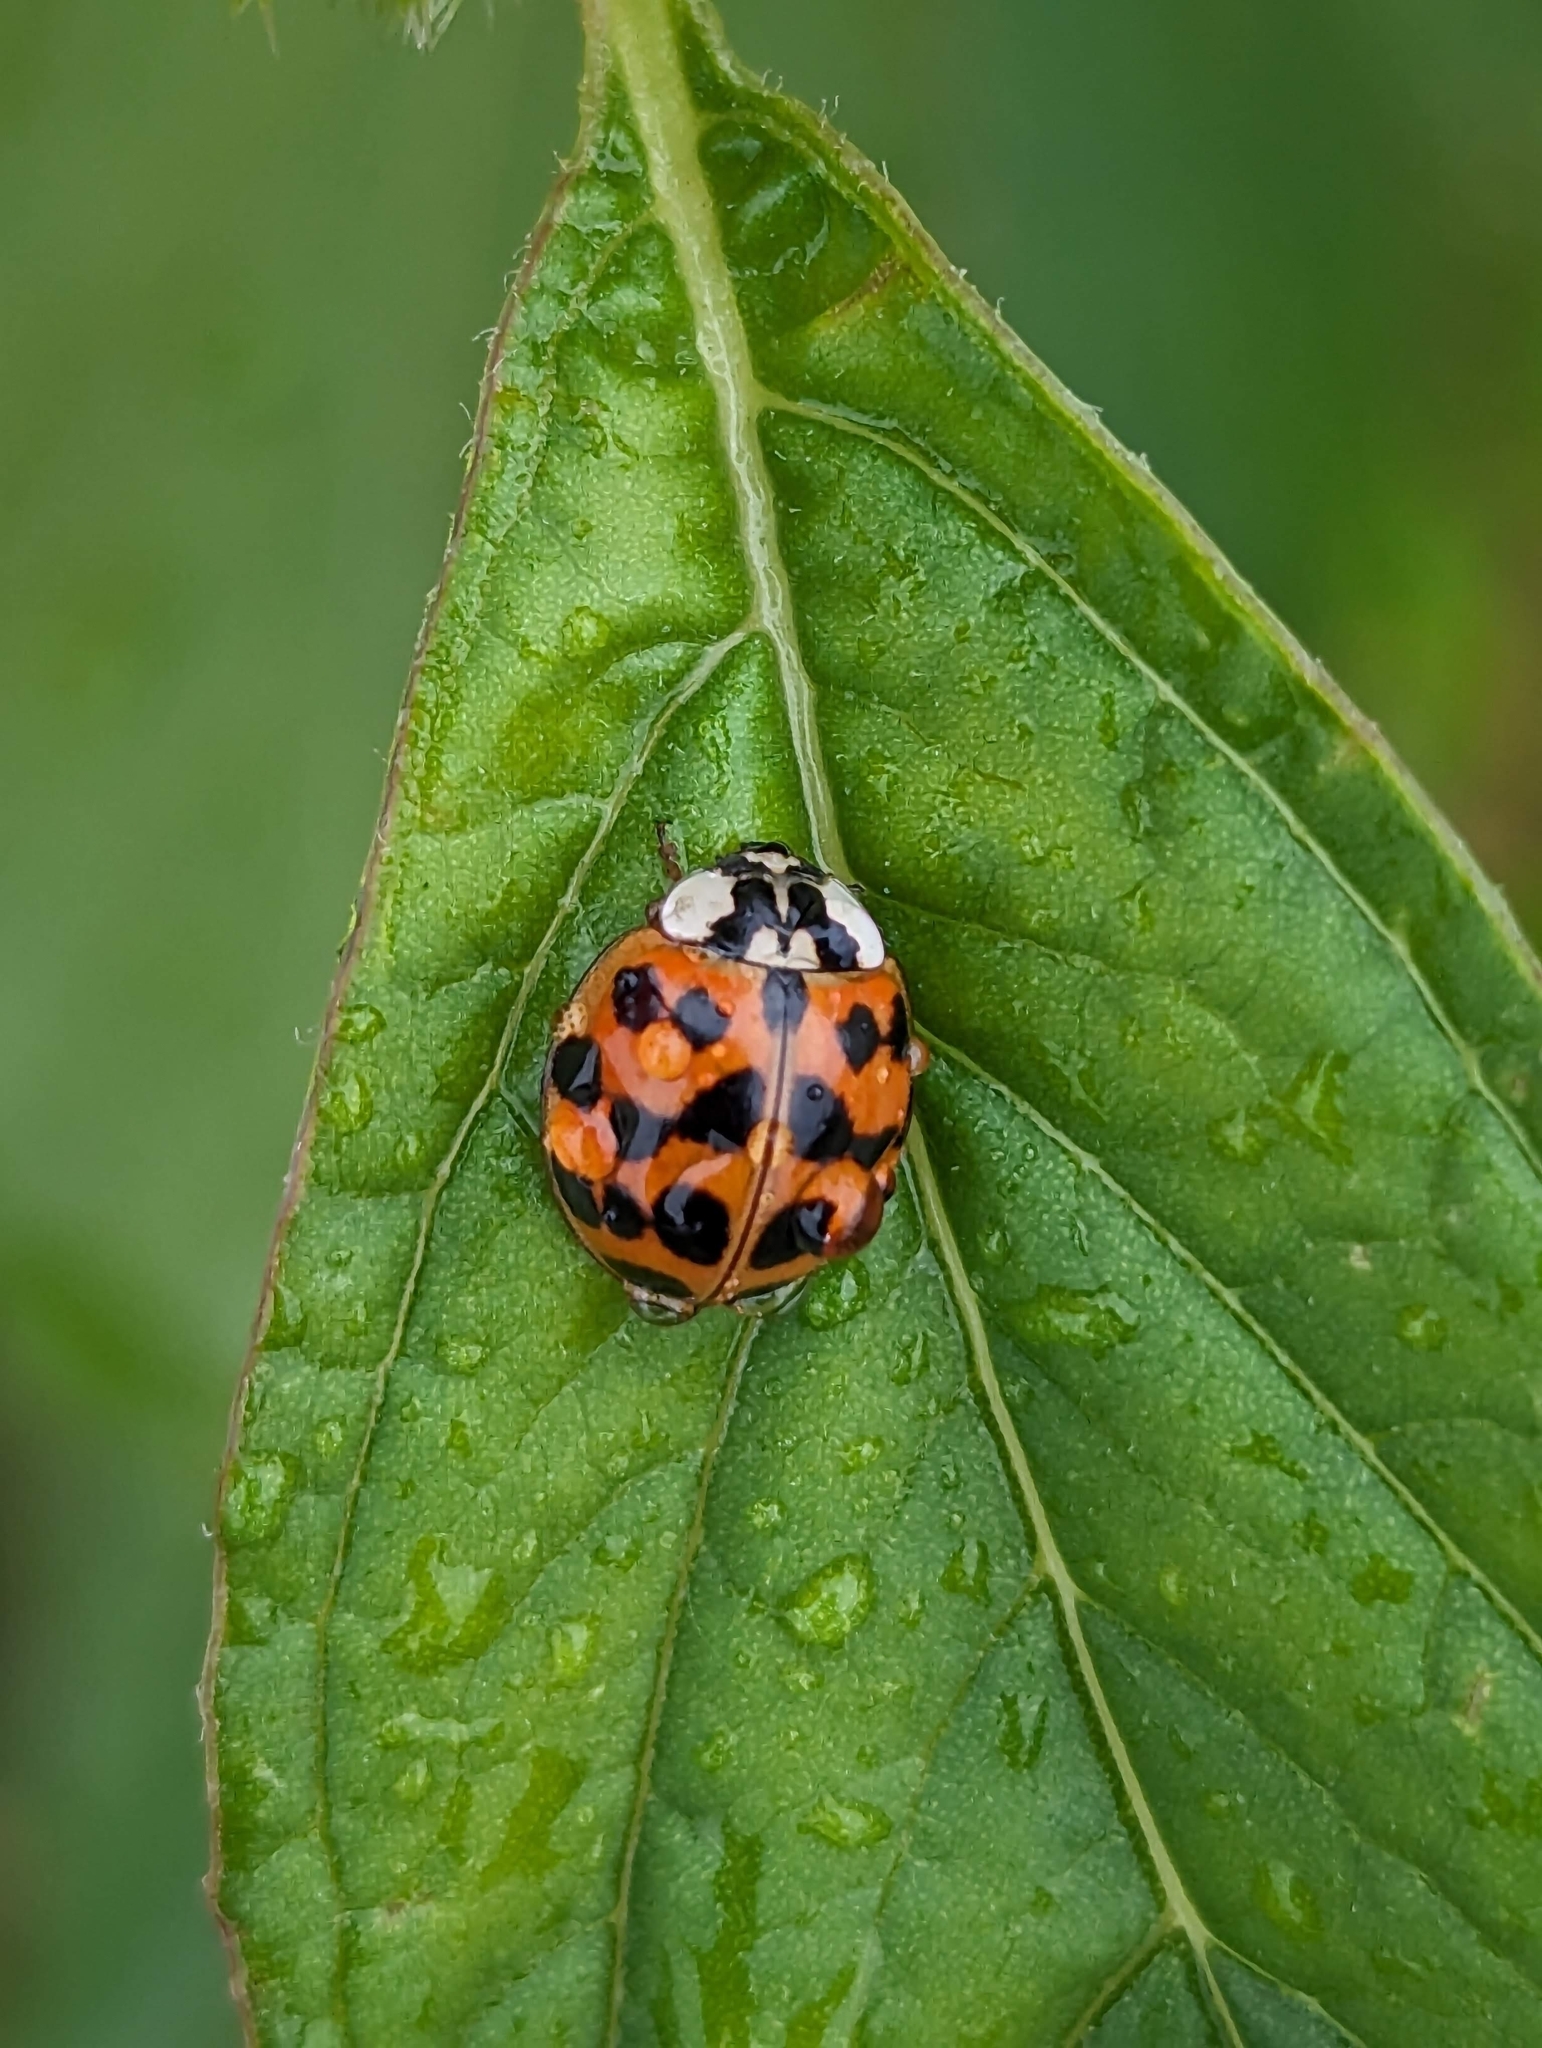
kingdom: Animalia
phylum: Arthropoda
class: Insecta
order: Coleoptera
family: Coccinellidae
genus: Harmonia
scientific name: Harmonia axyridis
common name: Harlequin ladybird
